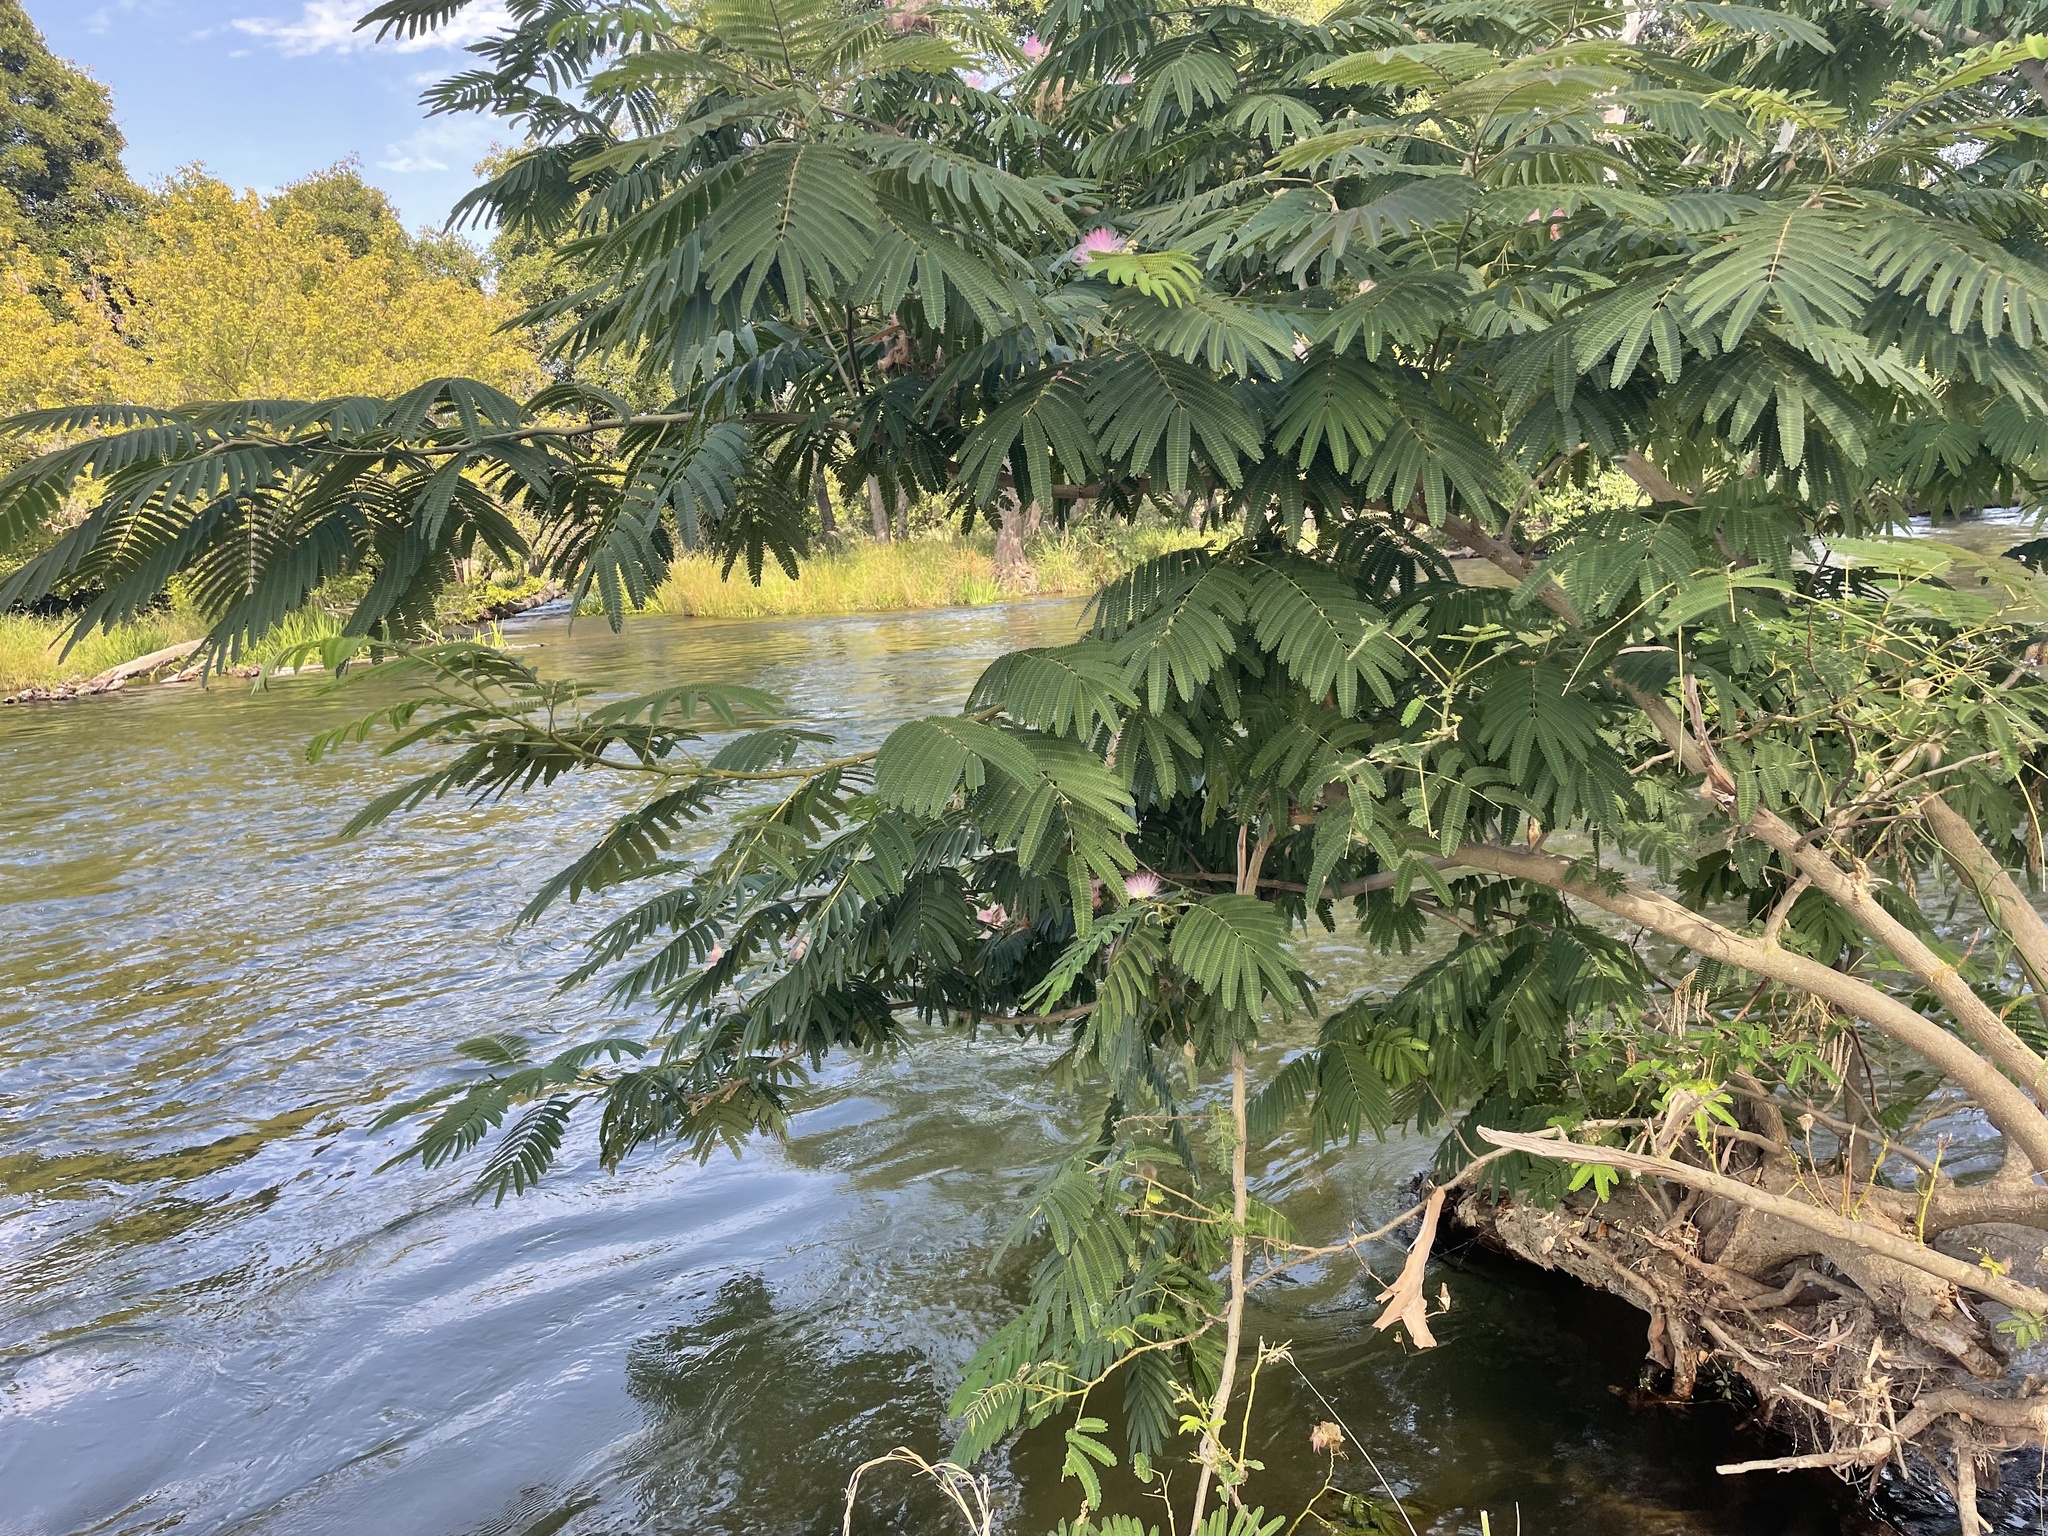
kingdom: Plantae
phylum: Tracheophyta
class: Magnoliopsida
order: Fabales
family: Fabaceae
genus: Albizia
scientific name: Albizia julibrissin
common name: Silktree
